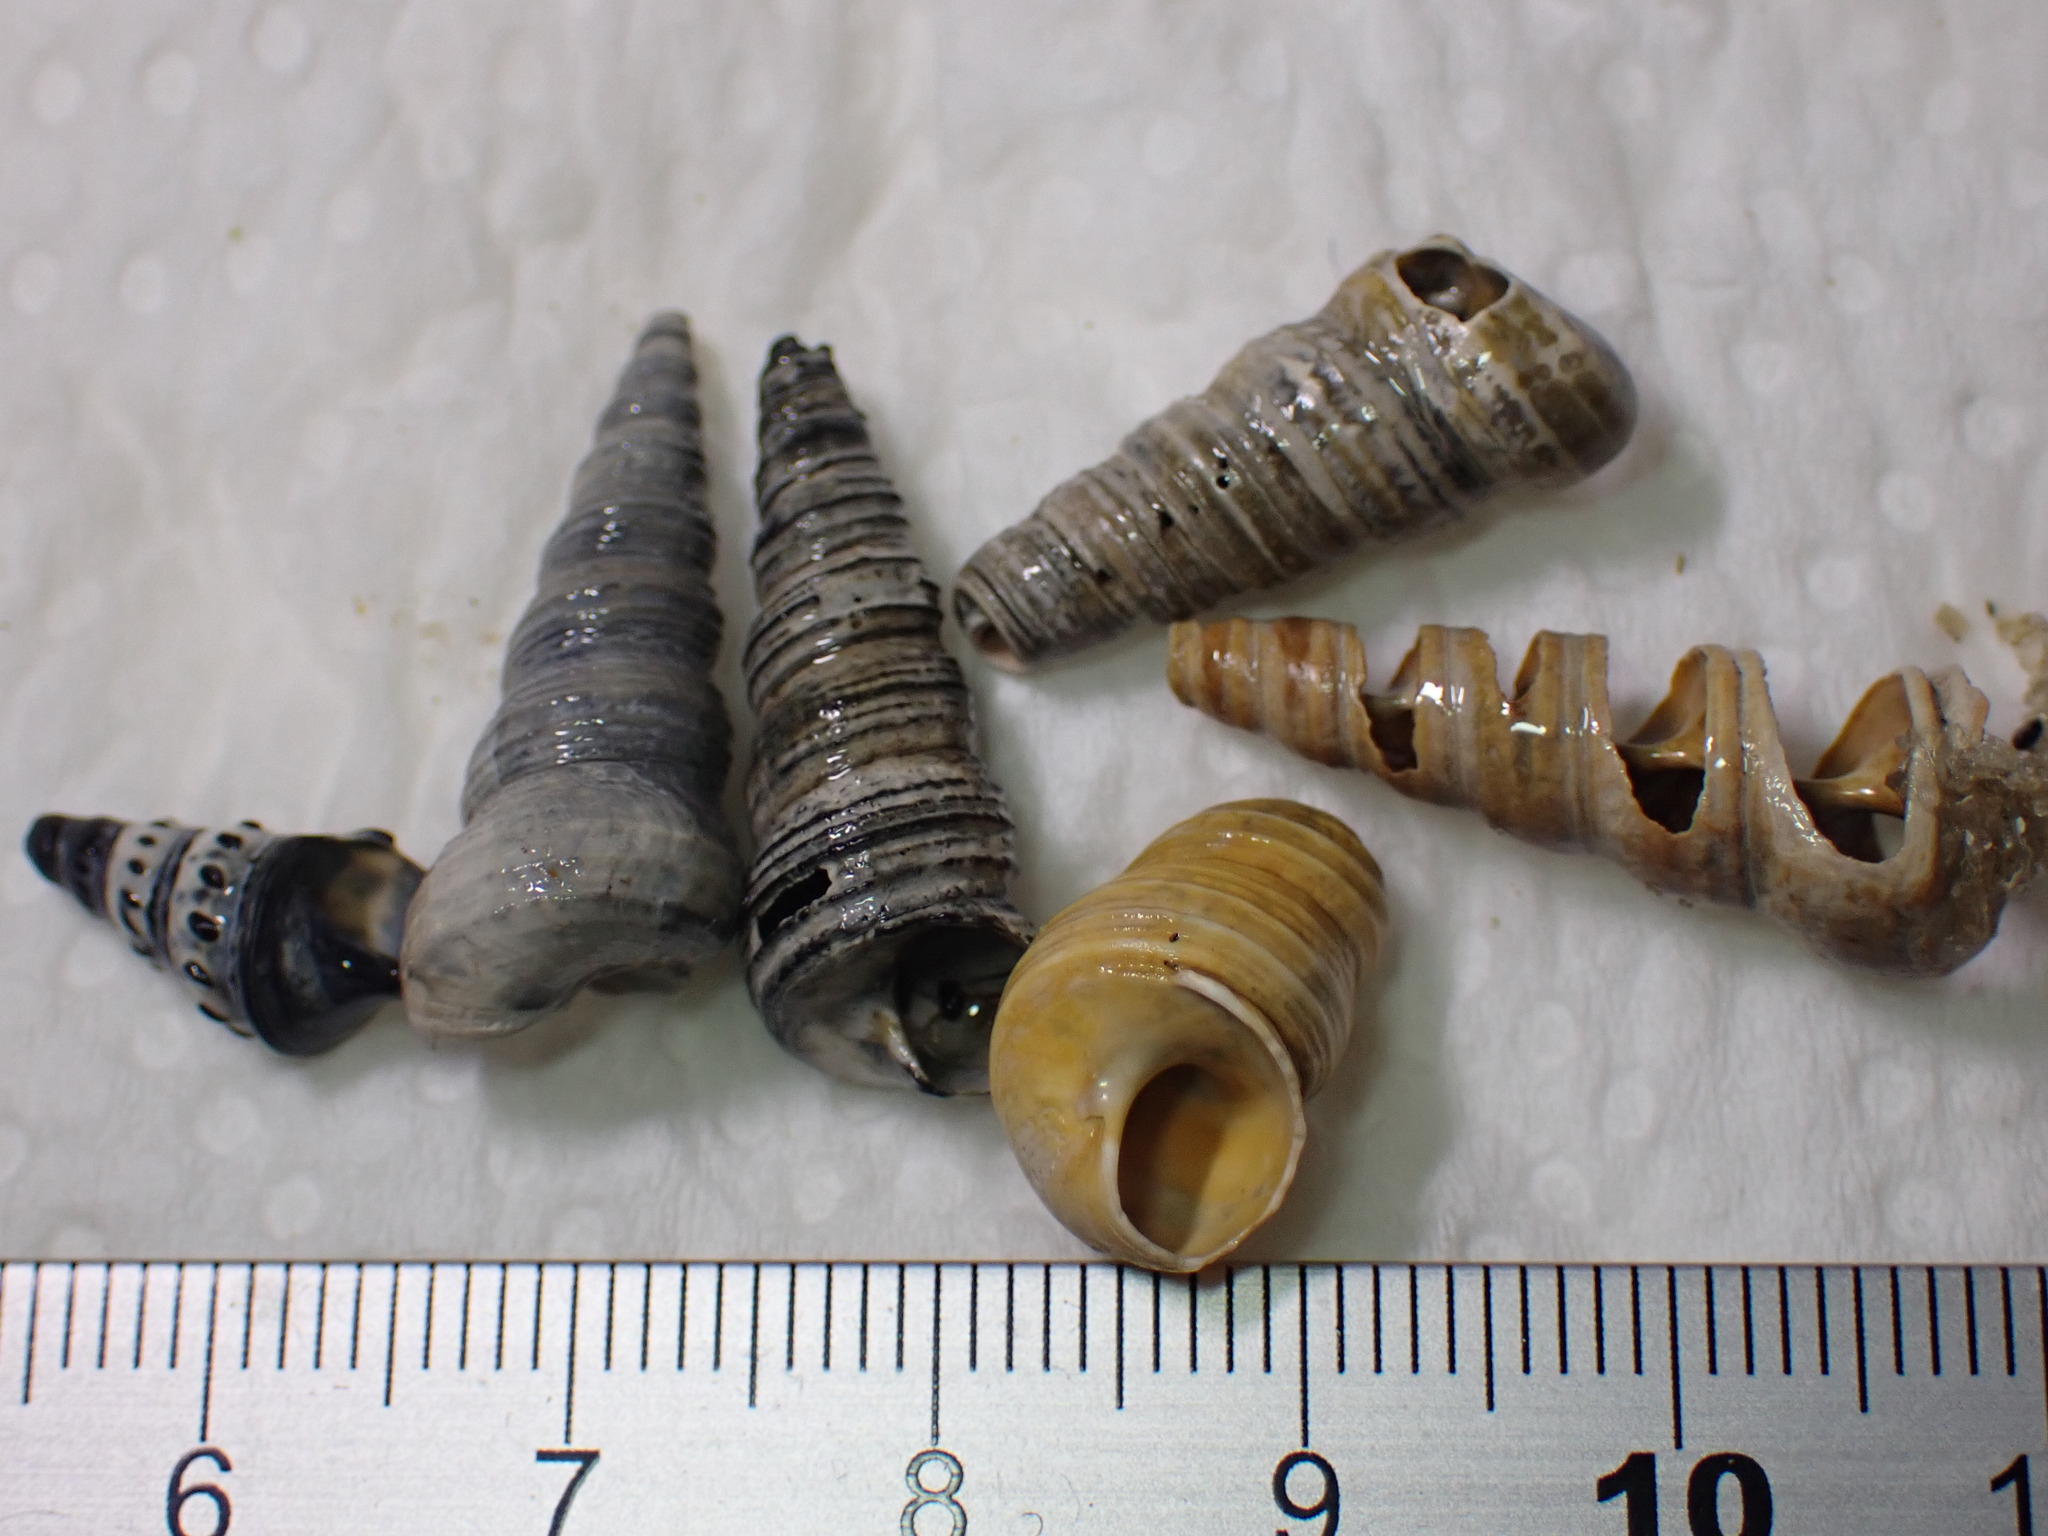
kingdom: Animalia
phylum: Mollusca
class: Gastropoda
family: Turritellidae
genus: Turritellinella
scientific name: Turritellinella tricarinata
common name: Auger shell
